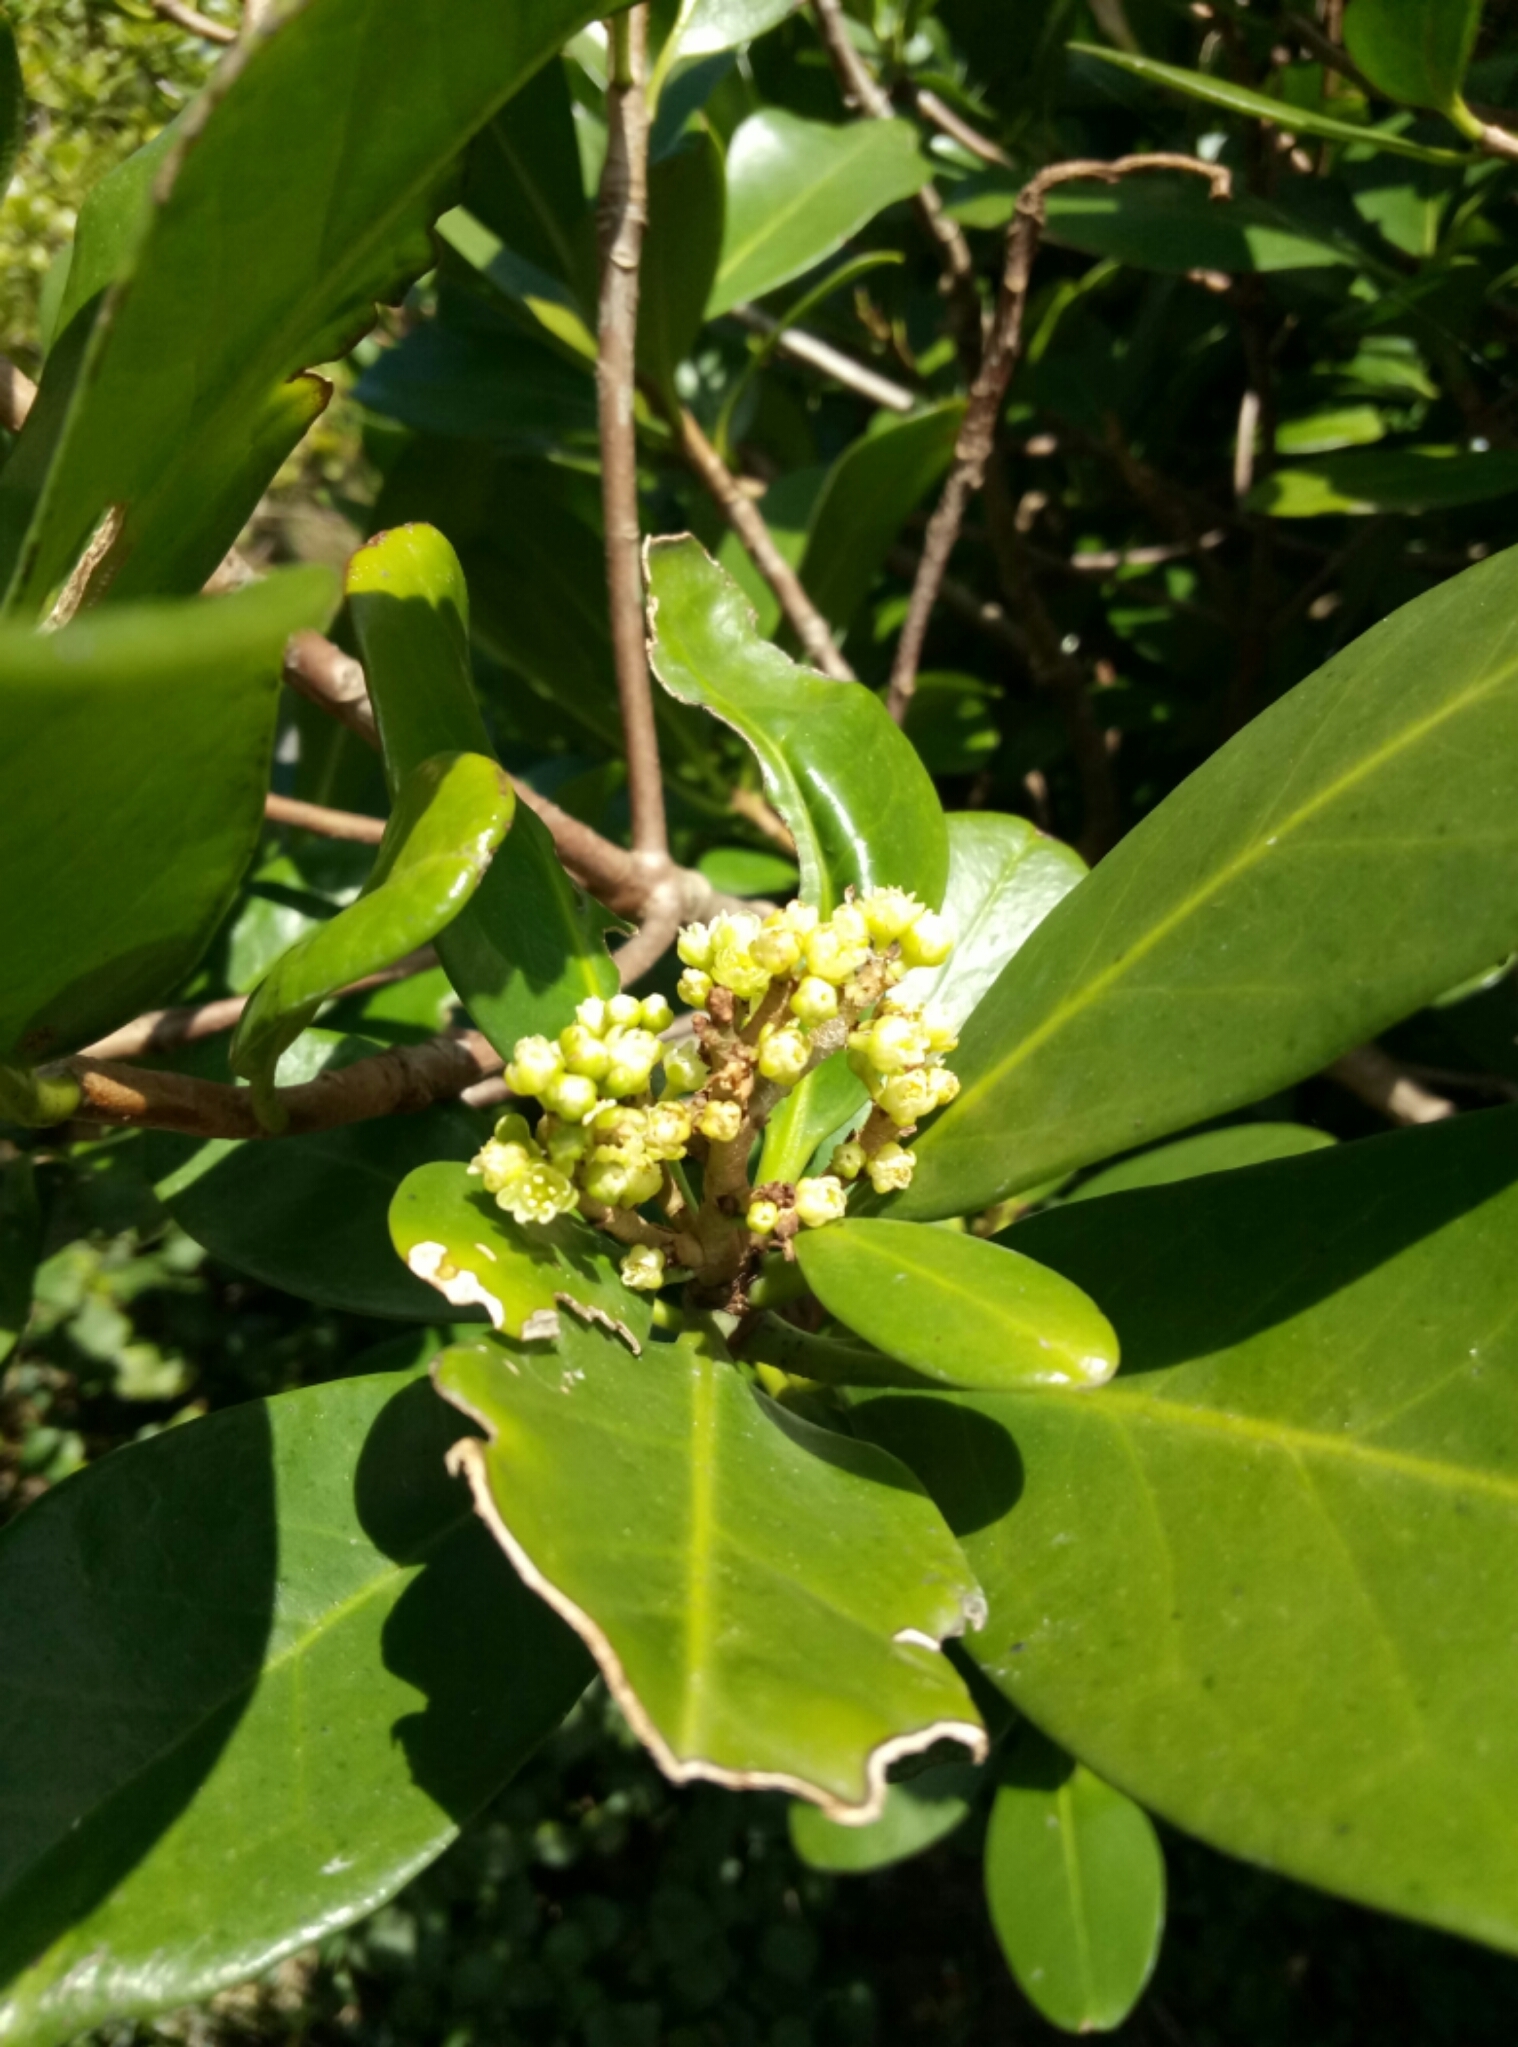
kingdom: Plantae
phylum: Tracheophyta
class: Magnoliopsida
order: Cucurbitales
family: Corynocarpaceae
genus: Corynocarpus
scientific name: Corynocarpus laevigatus
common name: New zealand laurel
